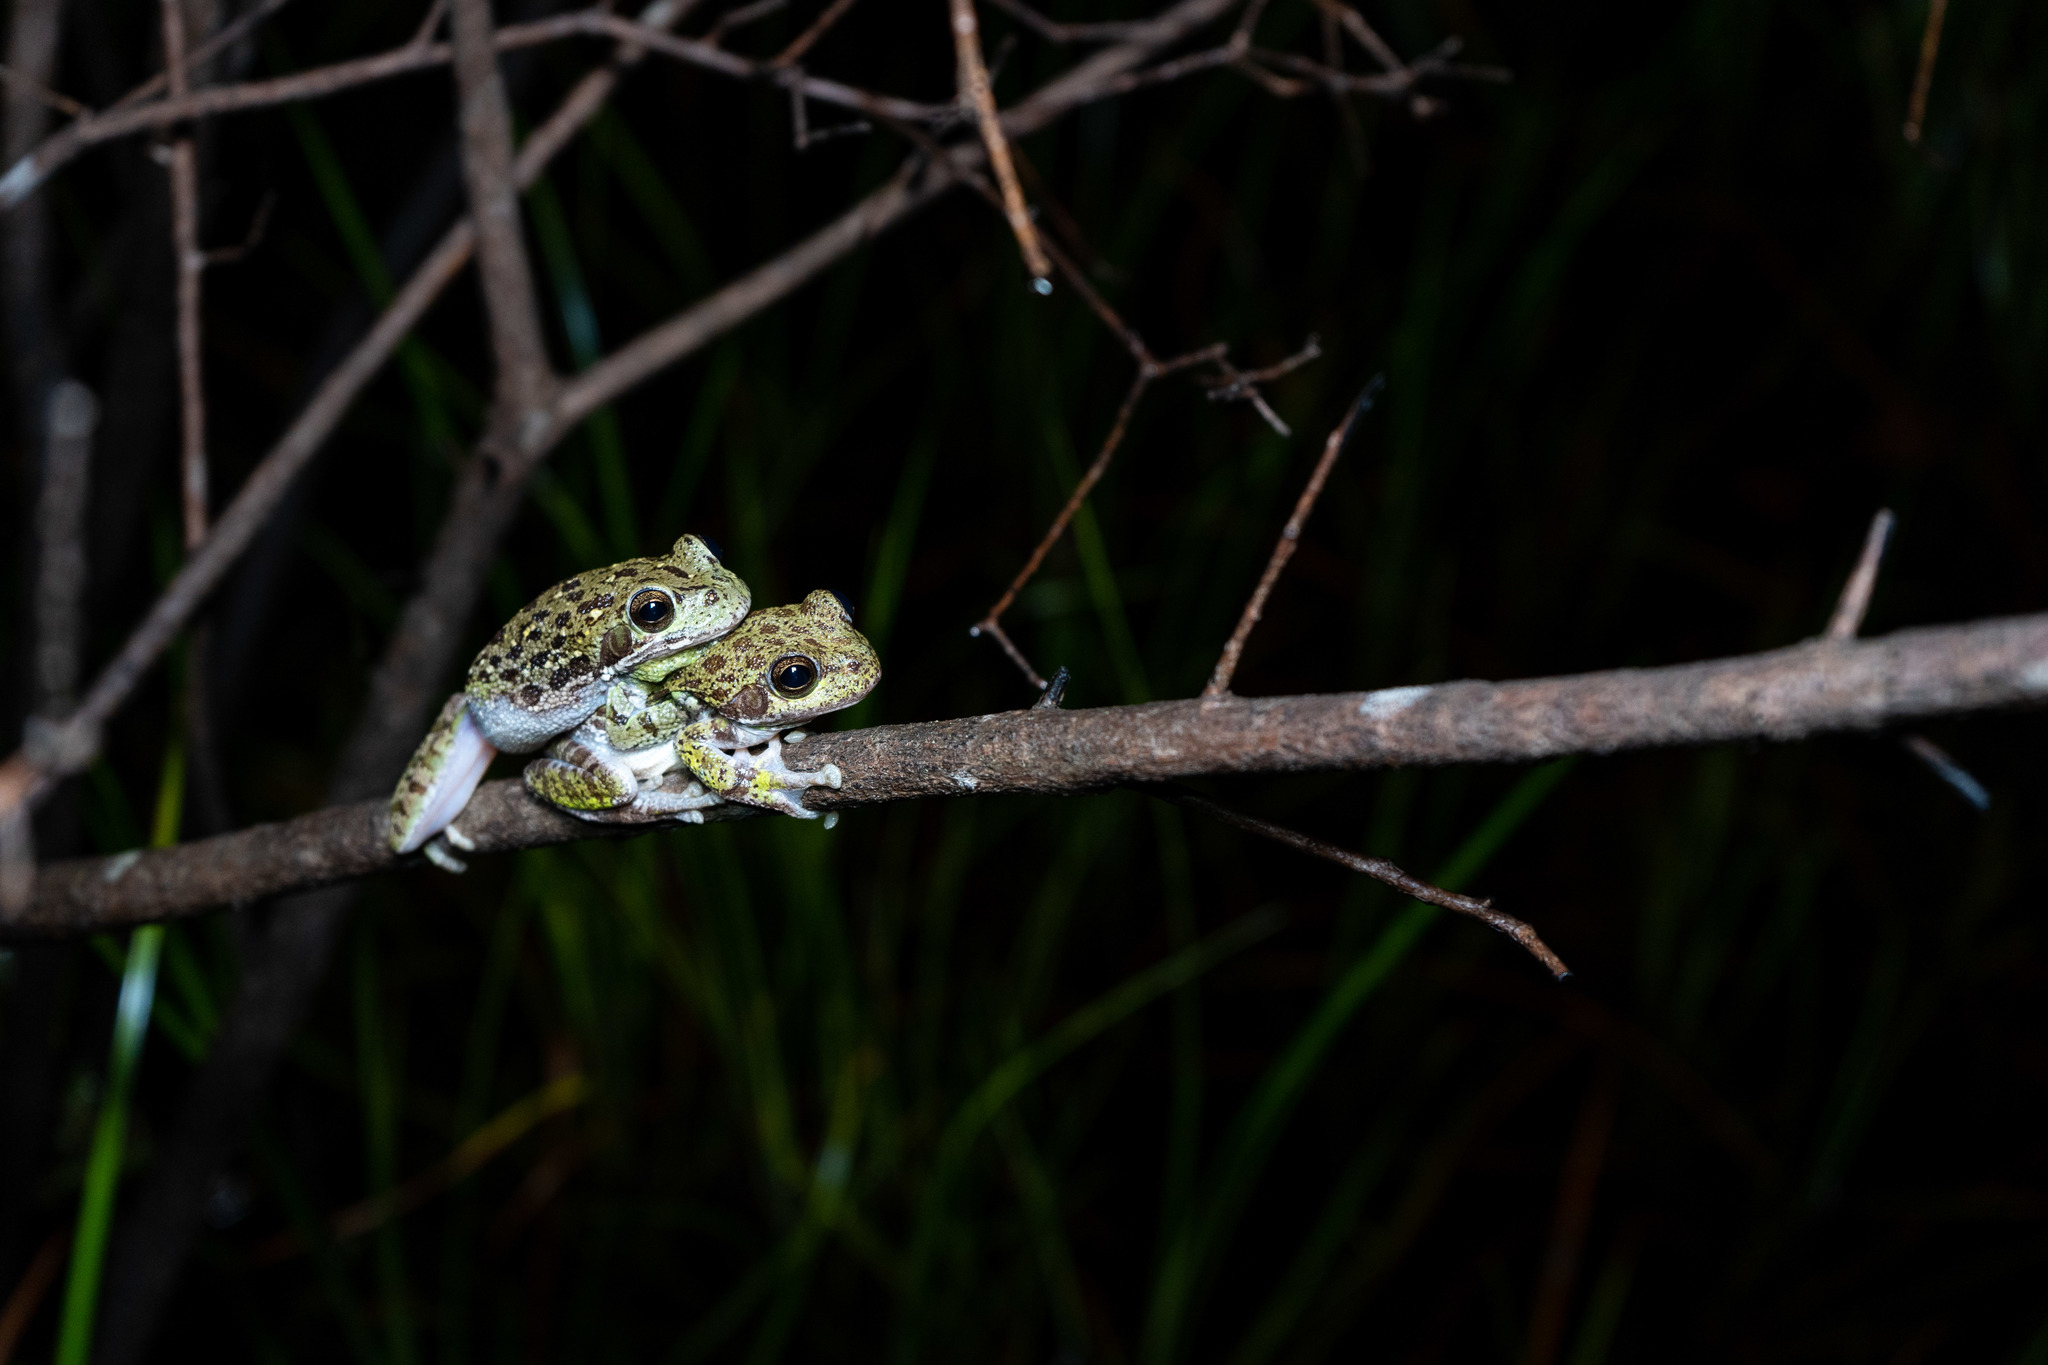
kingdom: Animalia
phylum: Chordata
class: Amphibia
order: Anura
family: Hylidae
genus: Dryophytes
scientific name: Dryophytes gratiosus
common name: Barking treefrog
